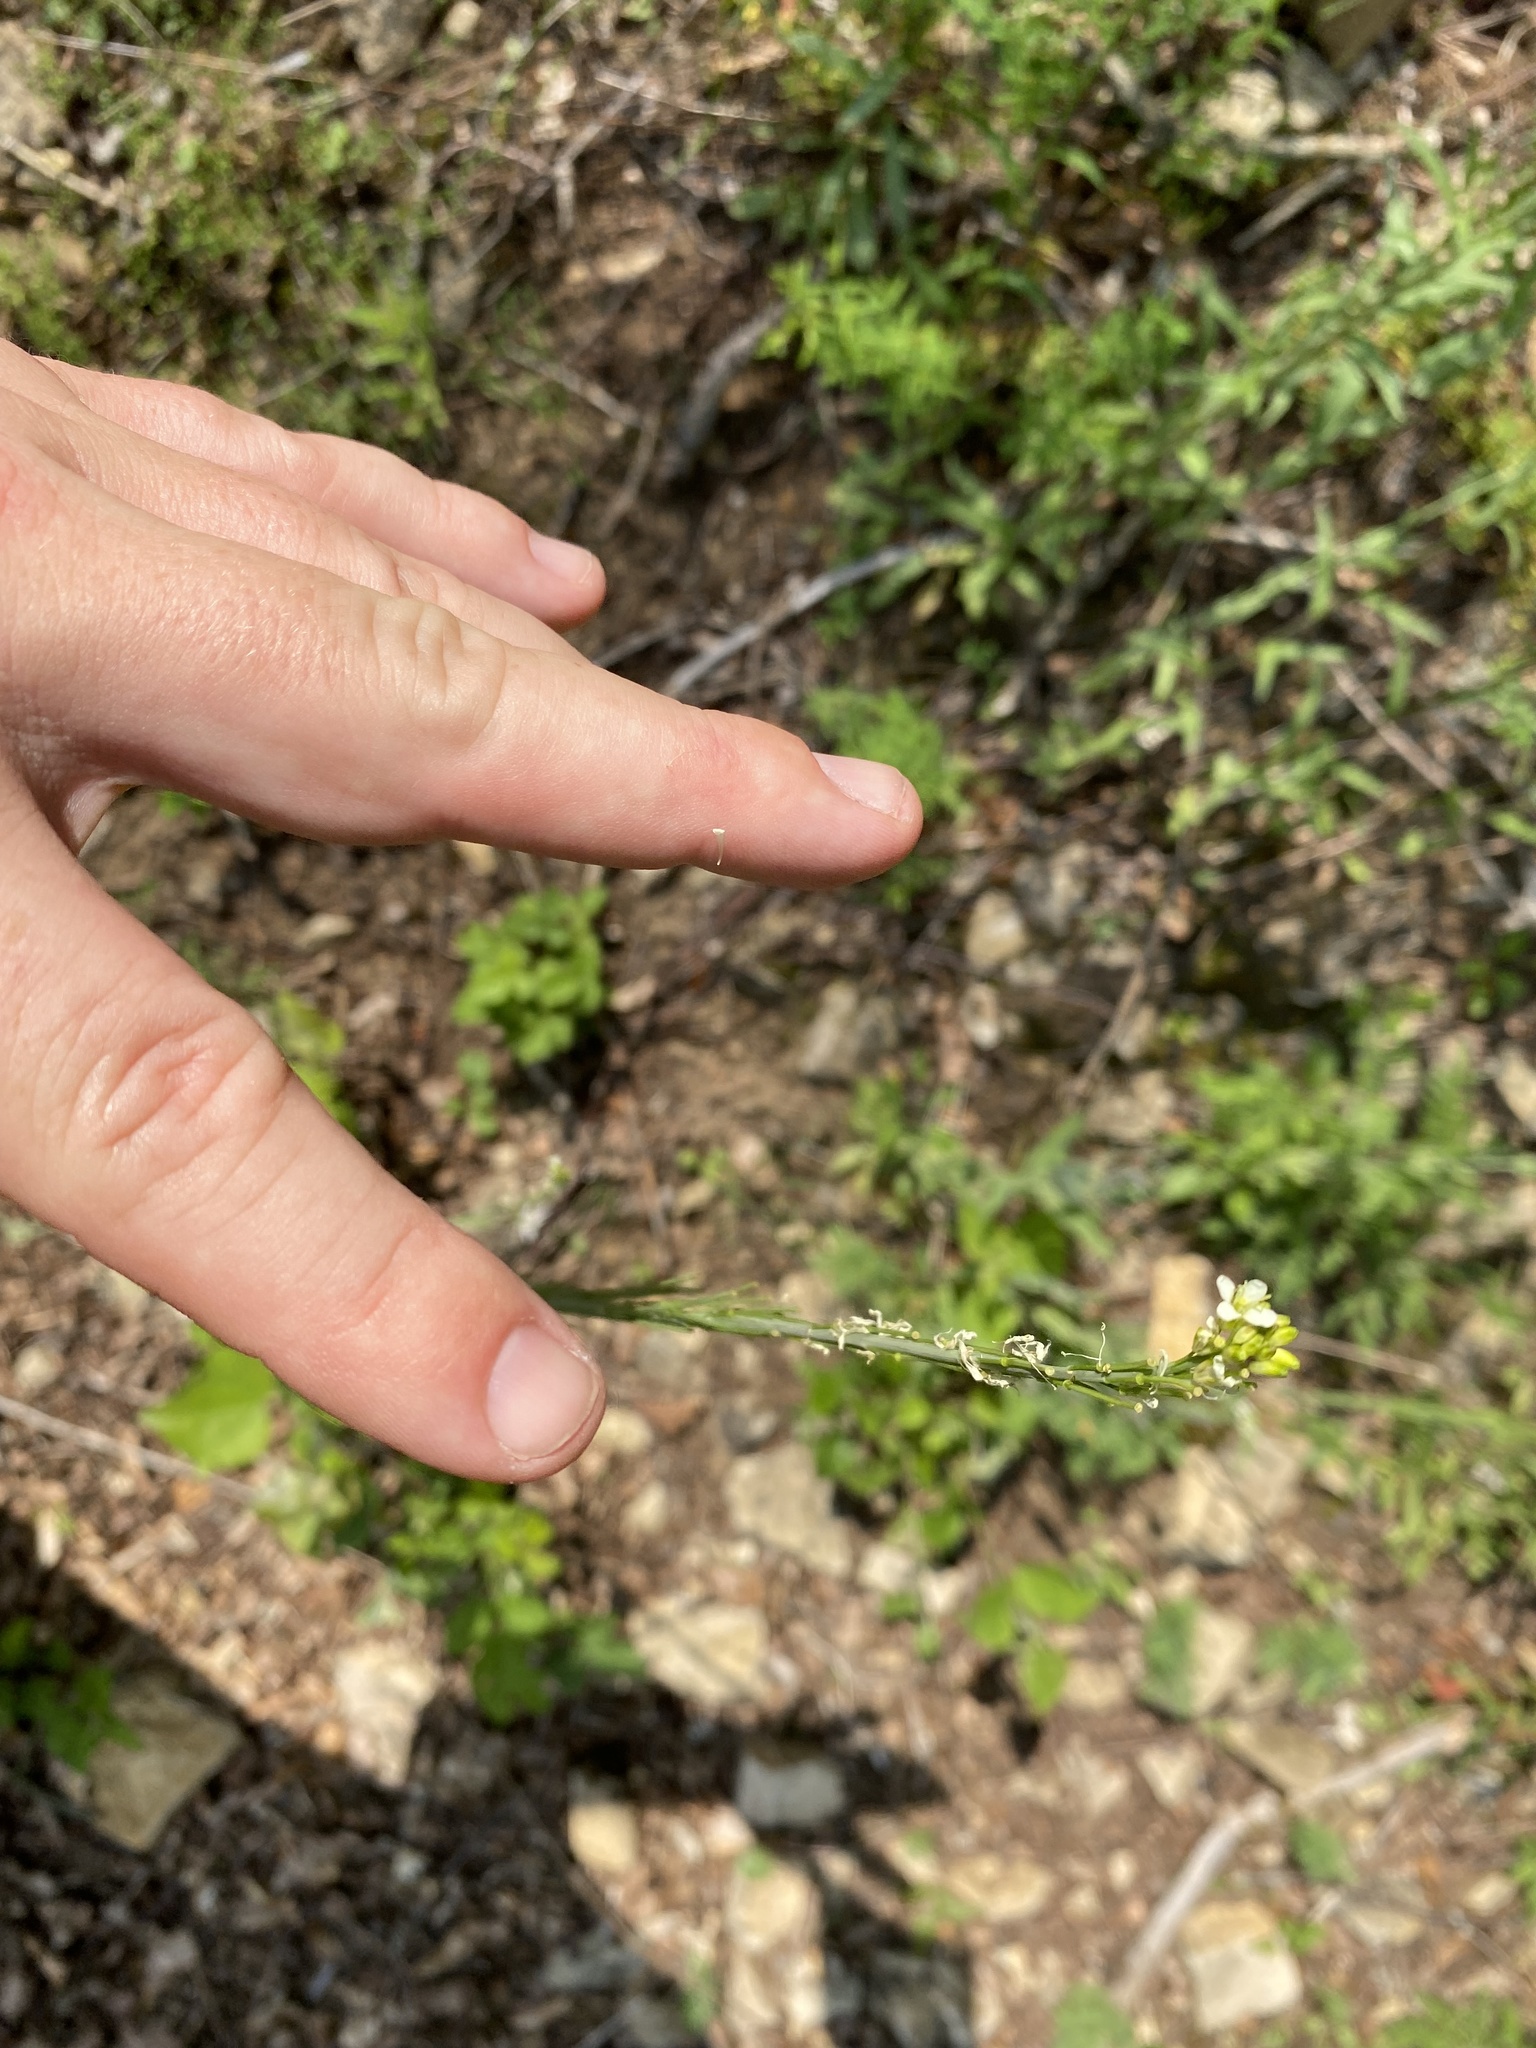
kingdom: Plantae
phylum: Tracheophyta
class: Magnoliopsida
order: Brassicales
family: Brassicaceae
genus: Turritis
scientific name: Turritis glabra
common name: Tower rockcress
